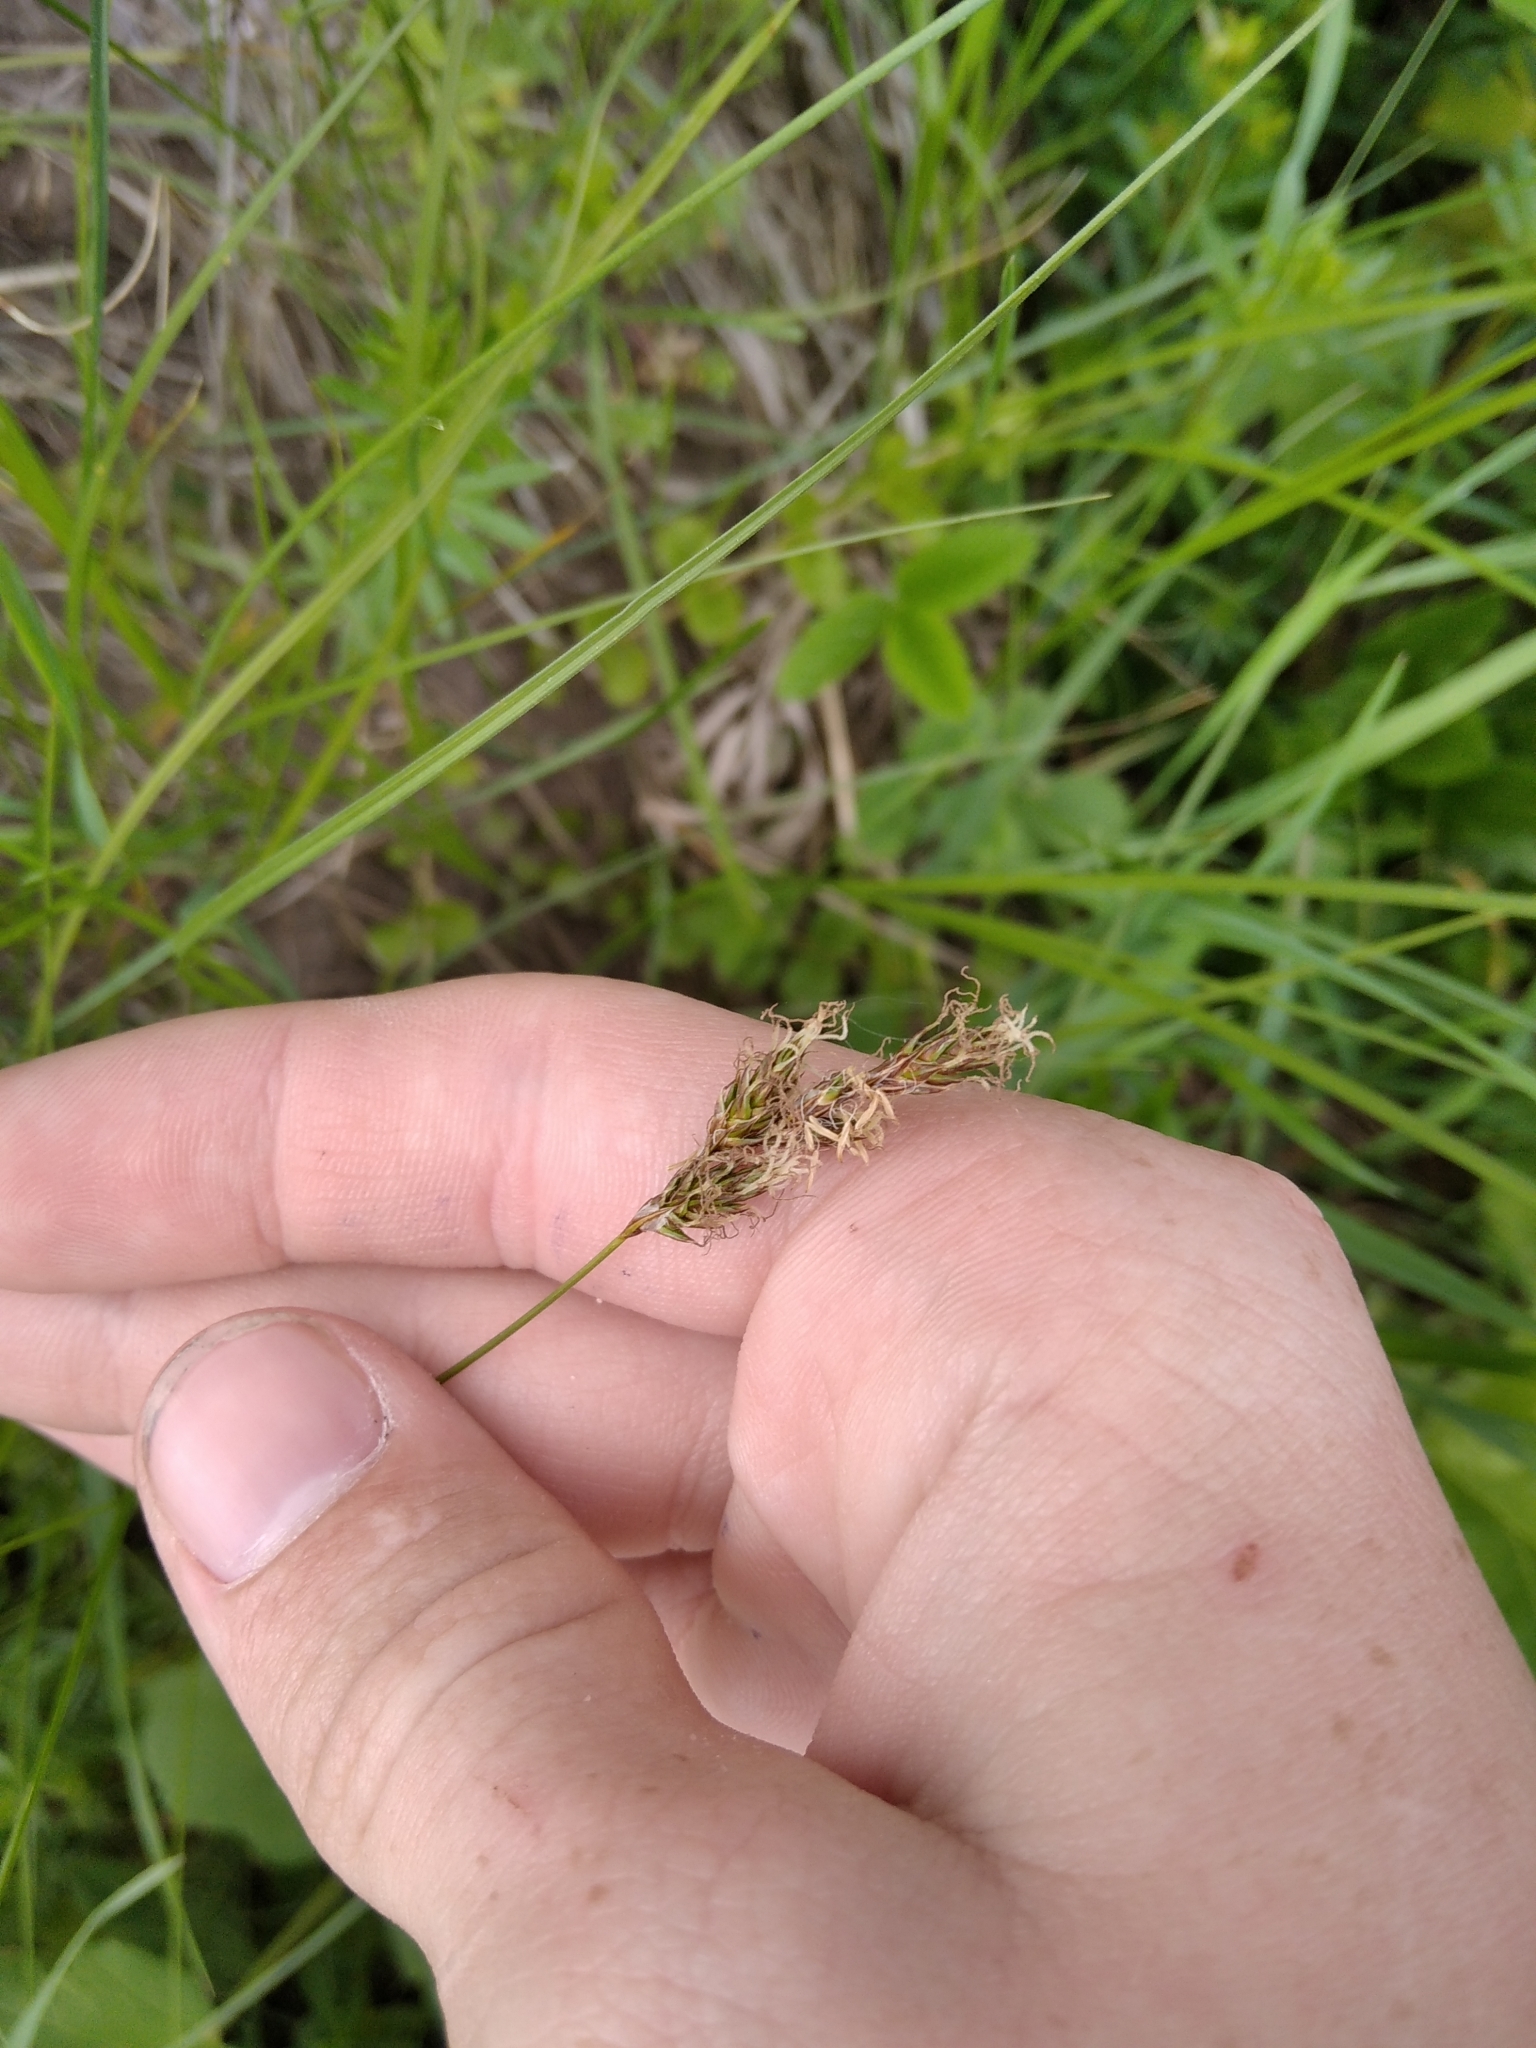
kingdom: Plantae
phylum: Tracheophyta
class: Liliopsida
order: Poales
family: Cyperaceae
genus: Carex
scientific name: Carex praecox
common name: Early sedge
